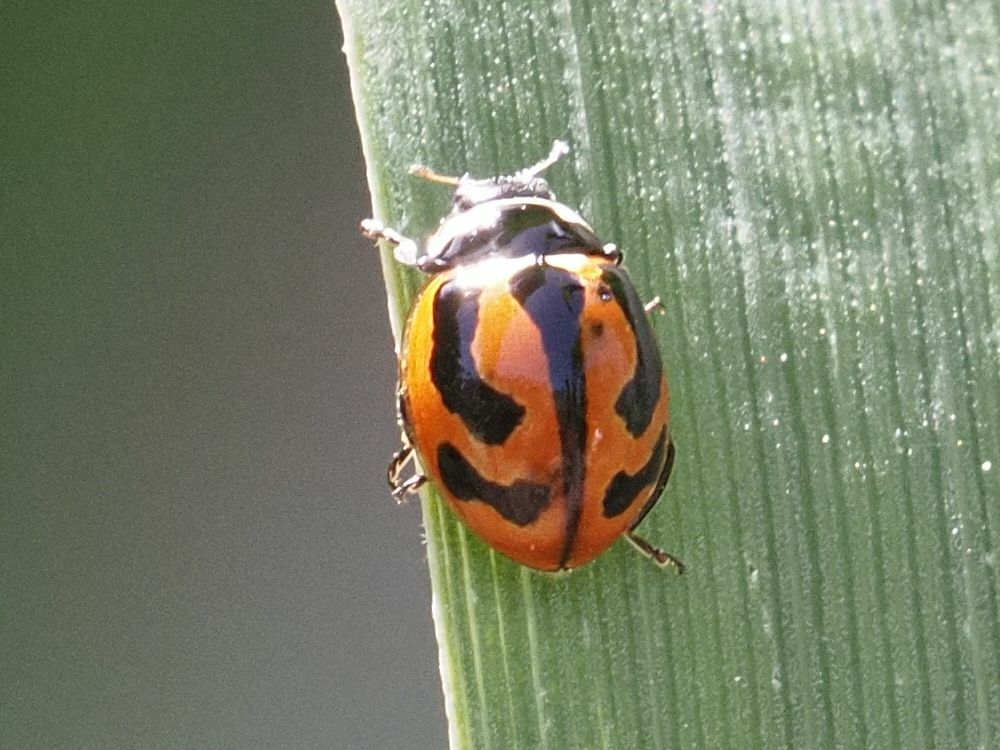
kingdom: Animalia
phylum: Arthropoda
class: Insecta
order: Coleoptera
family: Coccinellidae
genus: Coccinella
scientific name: Coccinella miranda
